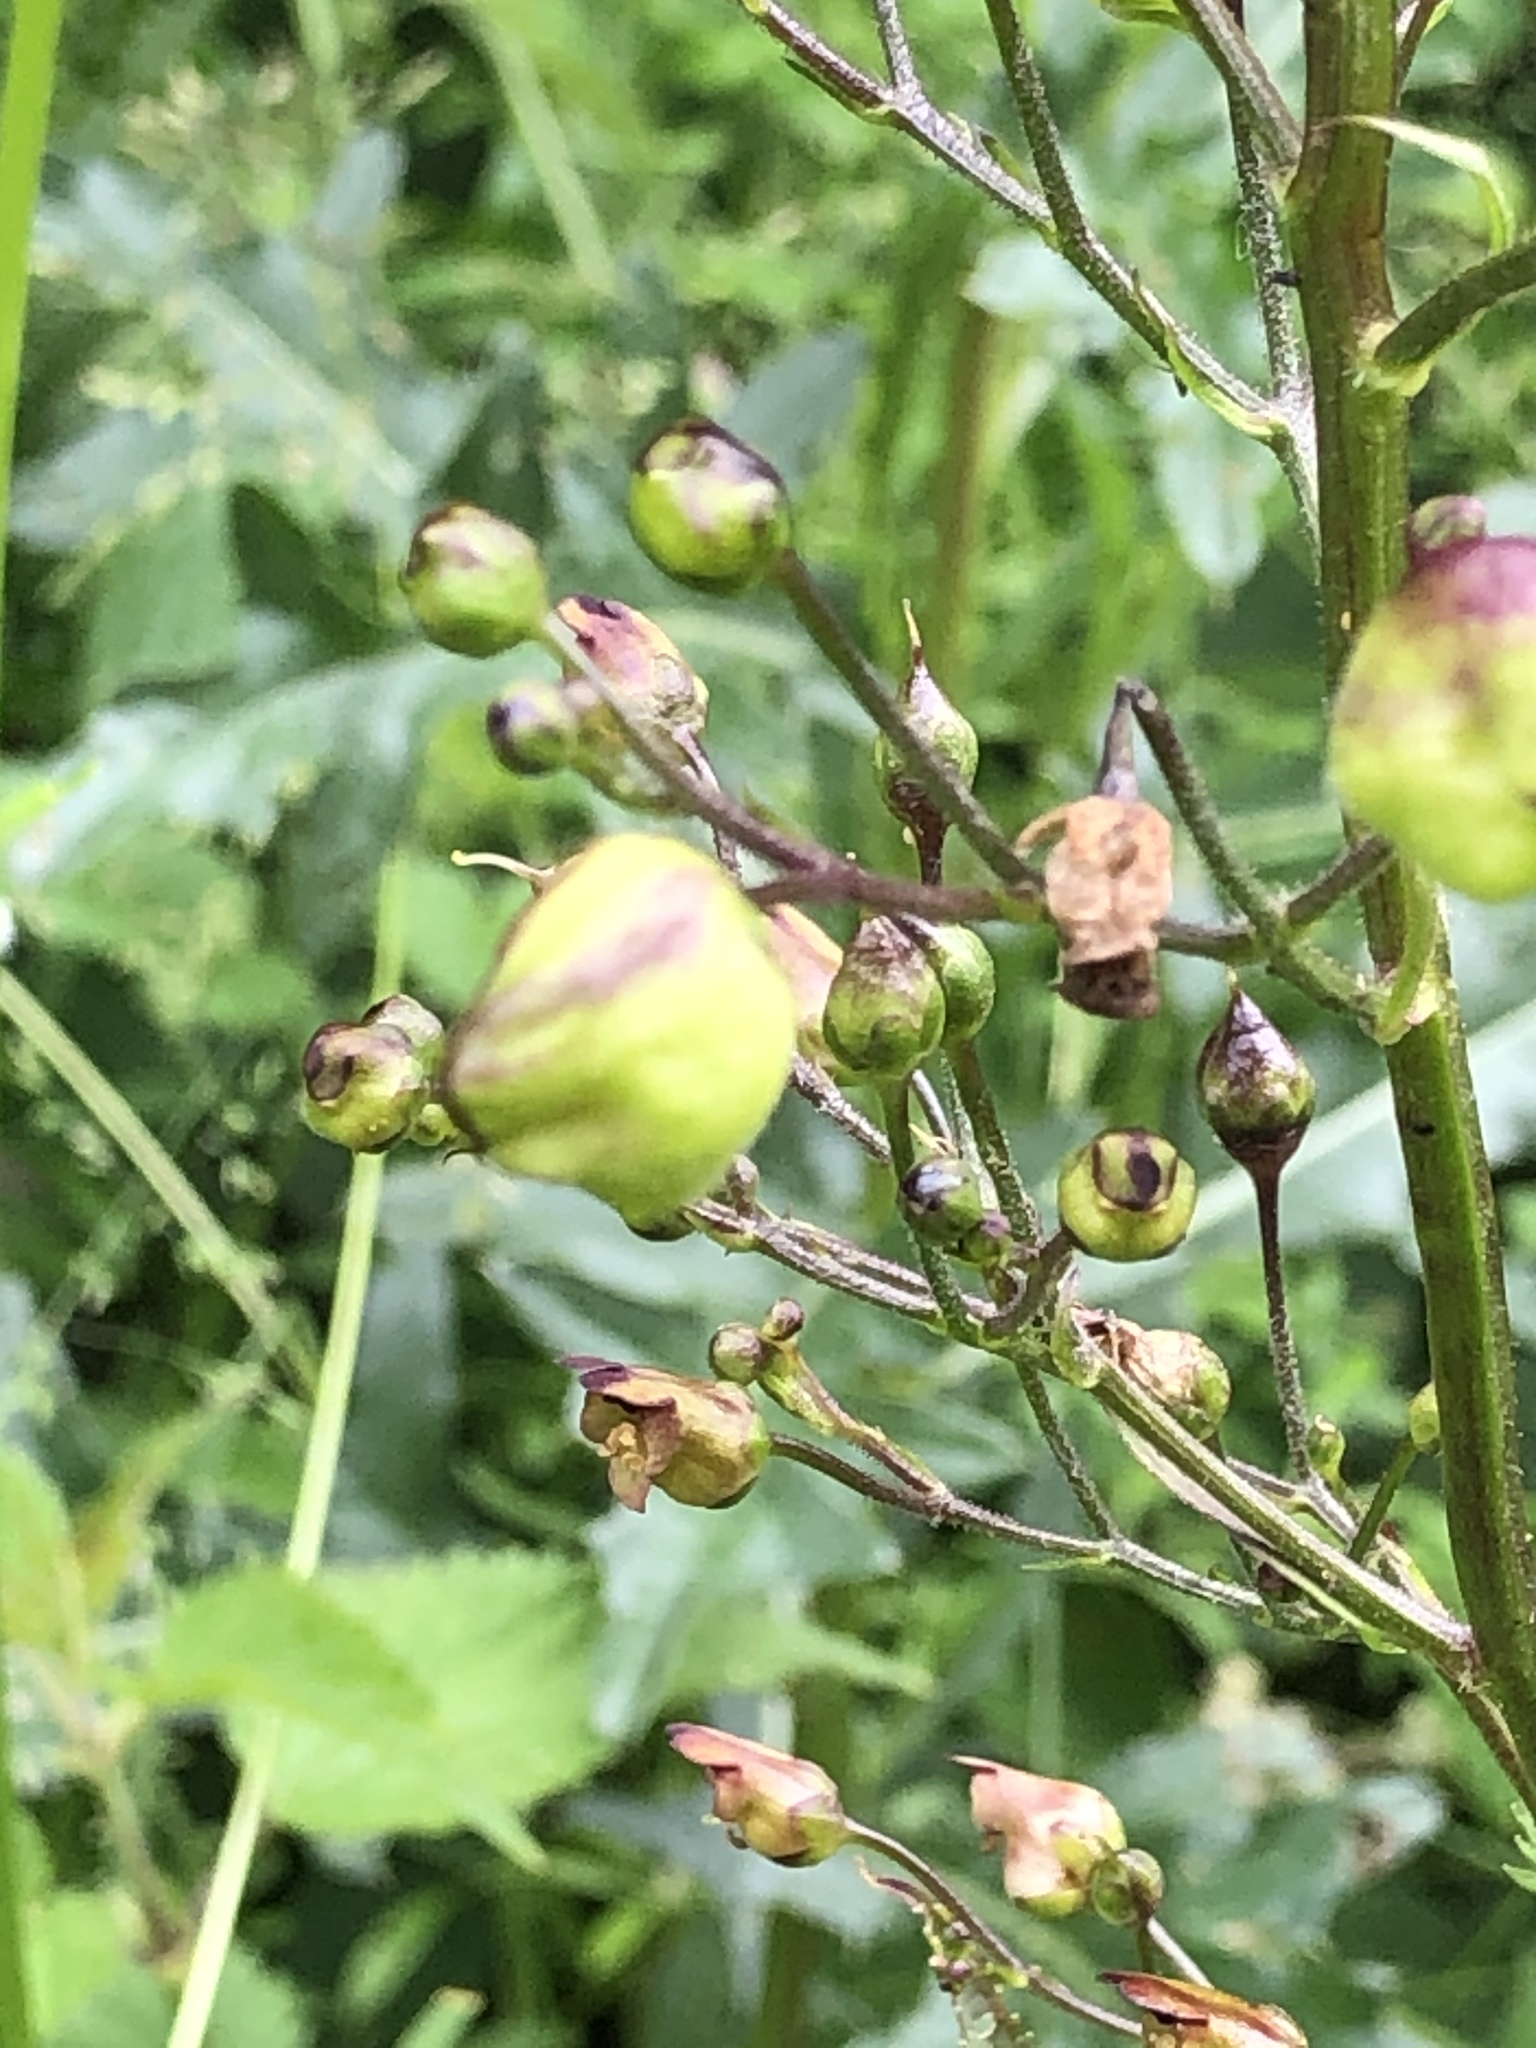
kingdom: Plantae
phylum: Tracheophyta
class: Magnoliopsida
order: Lamiales
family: Scrophulariaceae
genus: Scrophularia
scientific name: Scrophularia nodosa
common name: Common figwort
